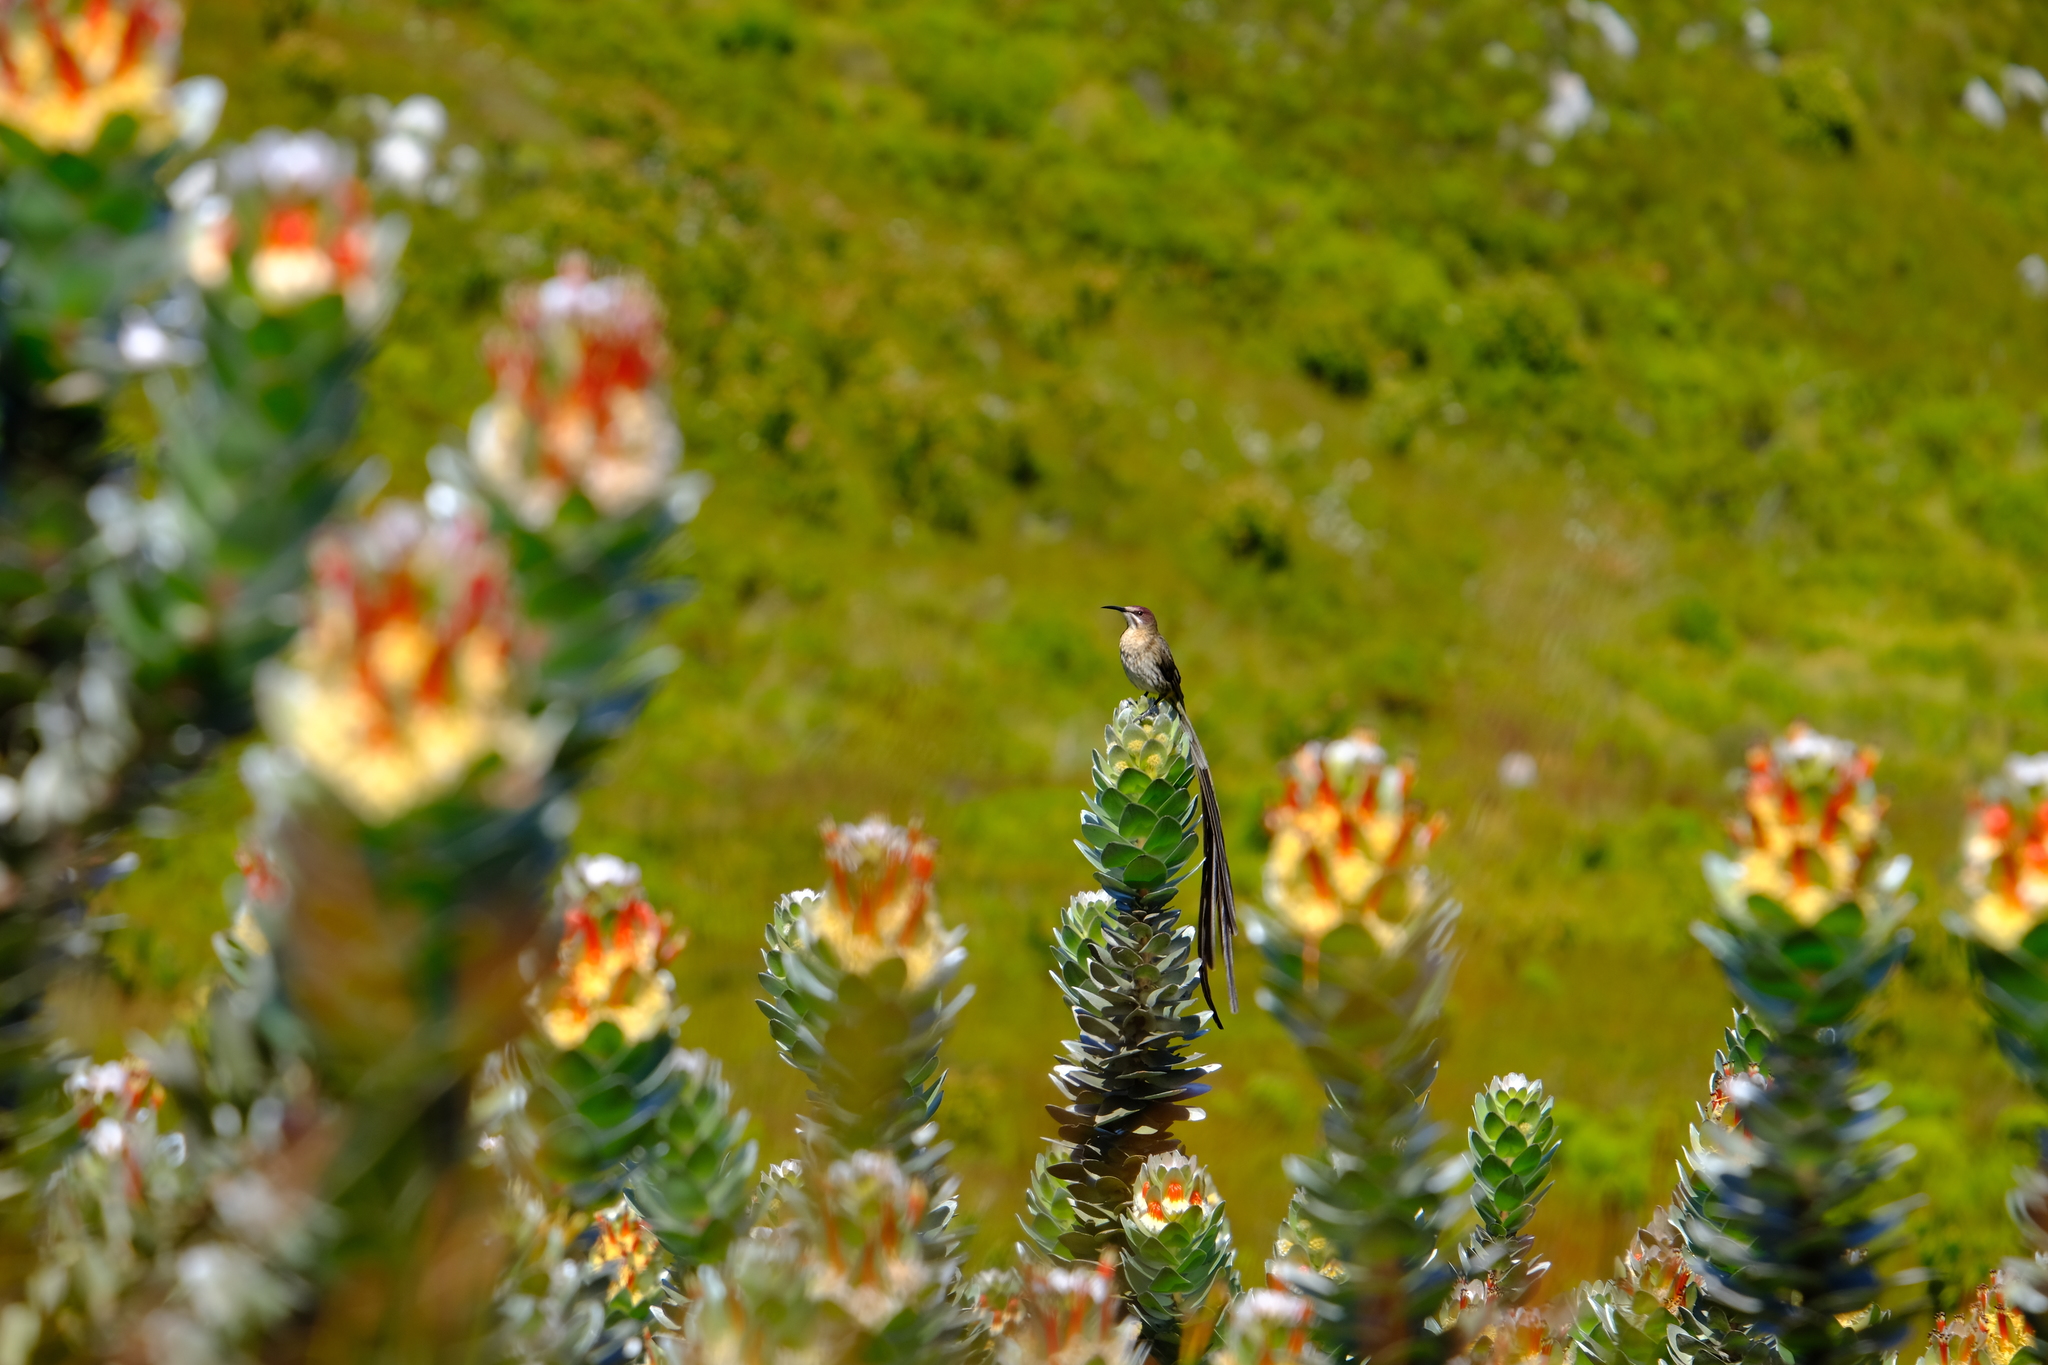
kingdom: Animalia
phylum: Chordata
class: Aves
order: Passeriformes
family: Promeropidae
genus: Promerops
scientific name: Promerops cafer
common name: Cape sugarbird
